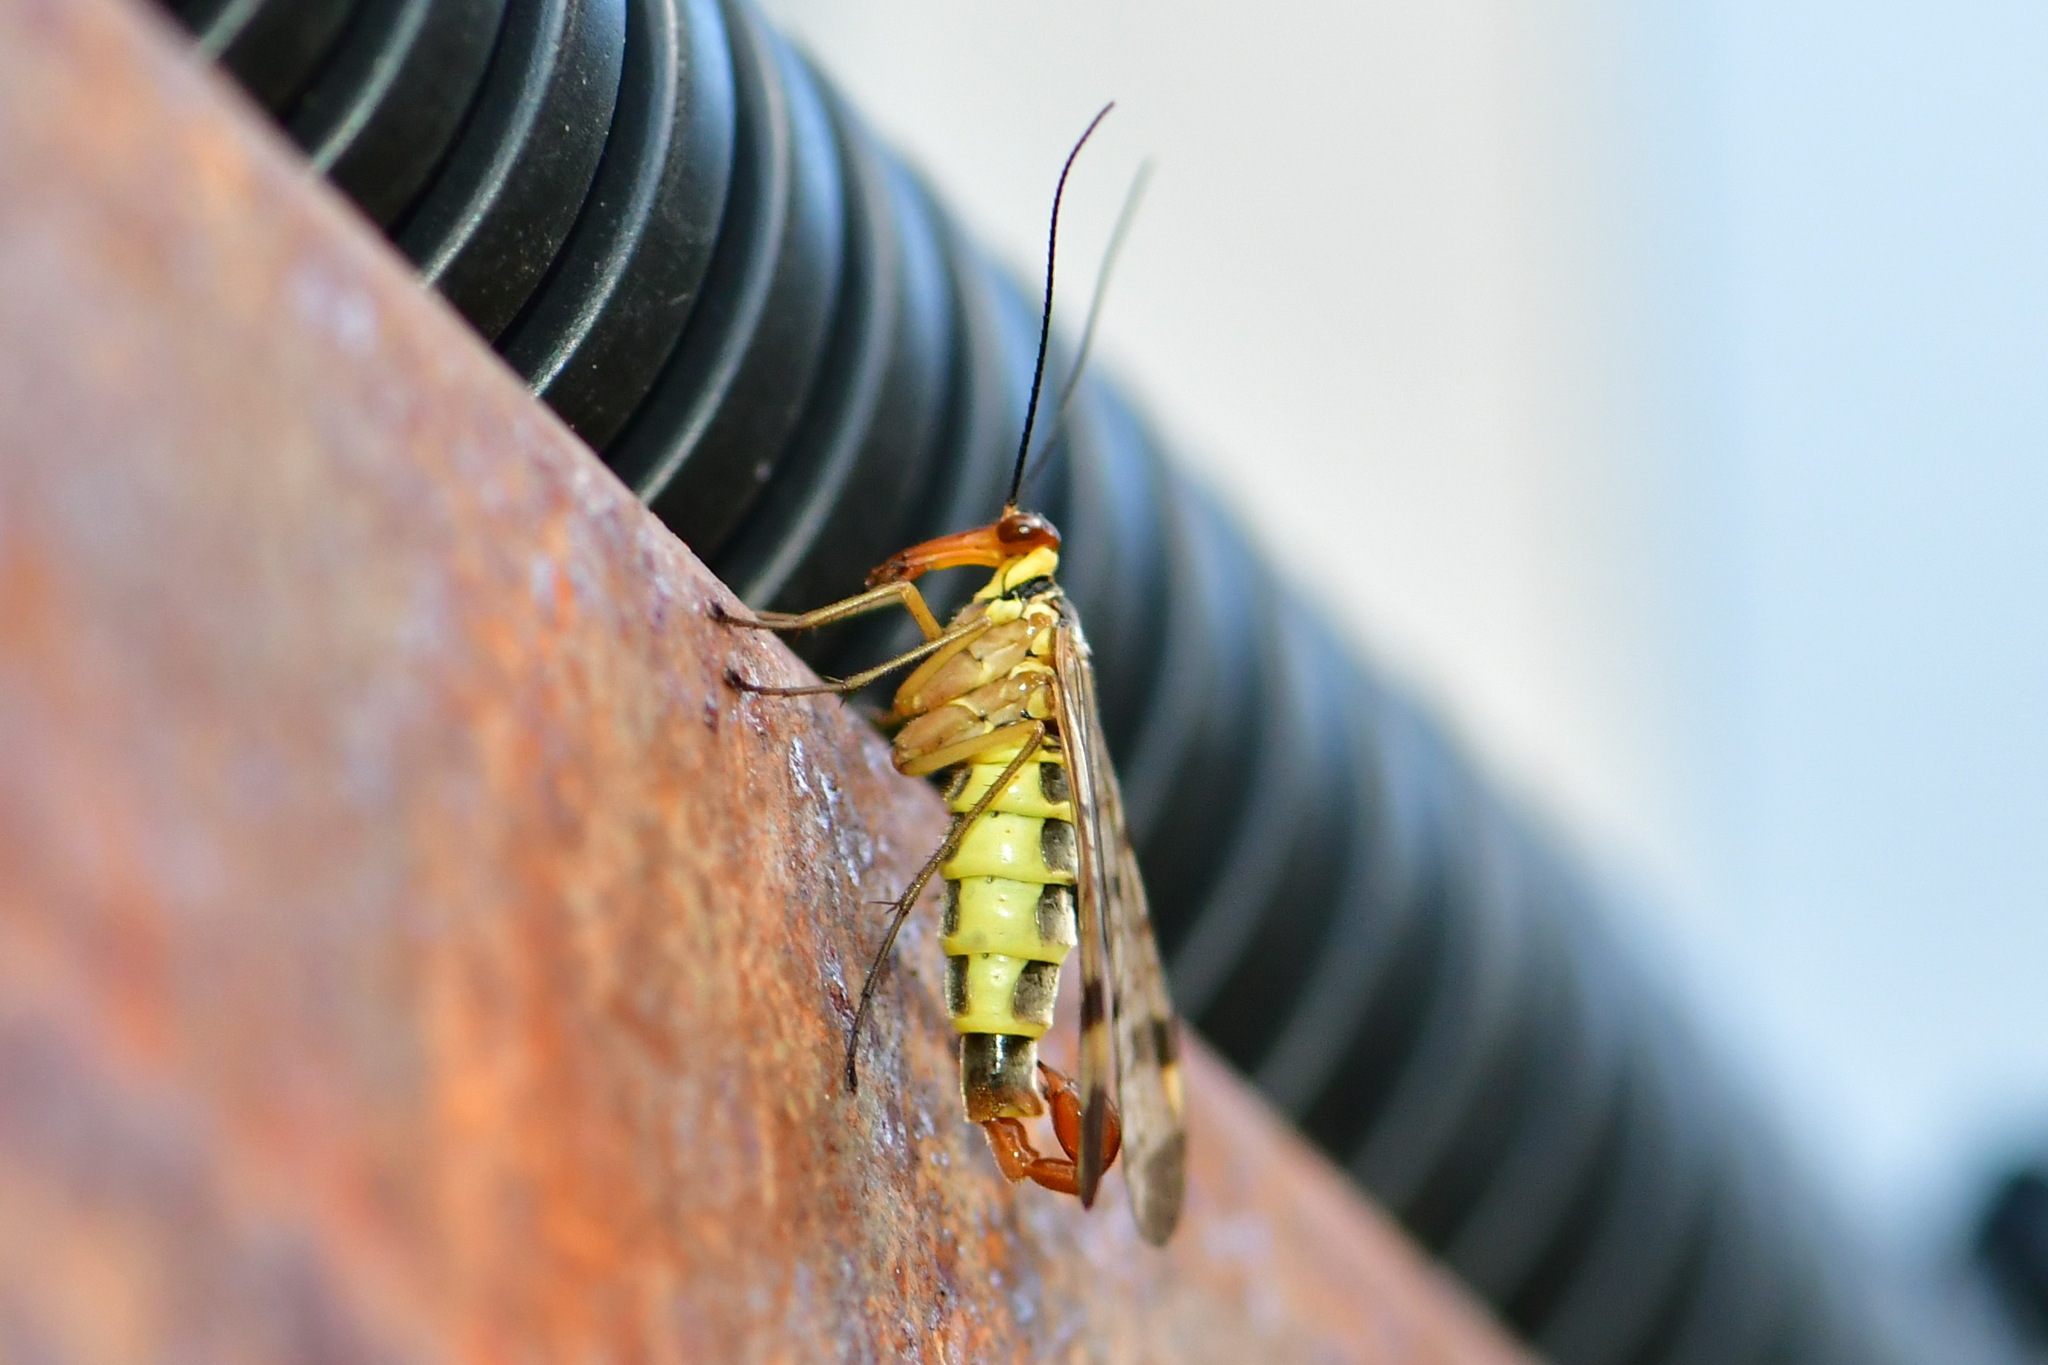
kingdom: Animalia
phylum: Arthropoda
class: Insecta
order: Mecoptera
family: Panorpidae
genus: Panorpa
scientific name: Panorpa cognata
